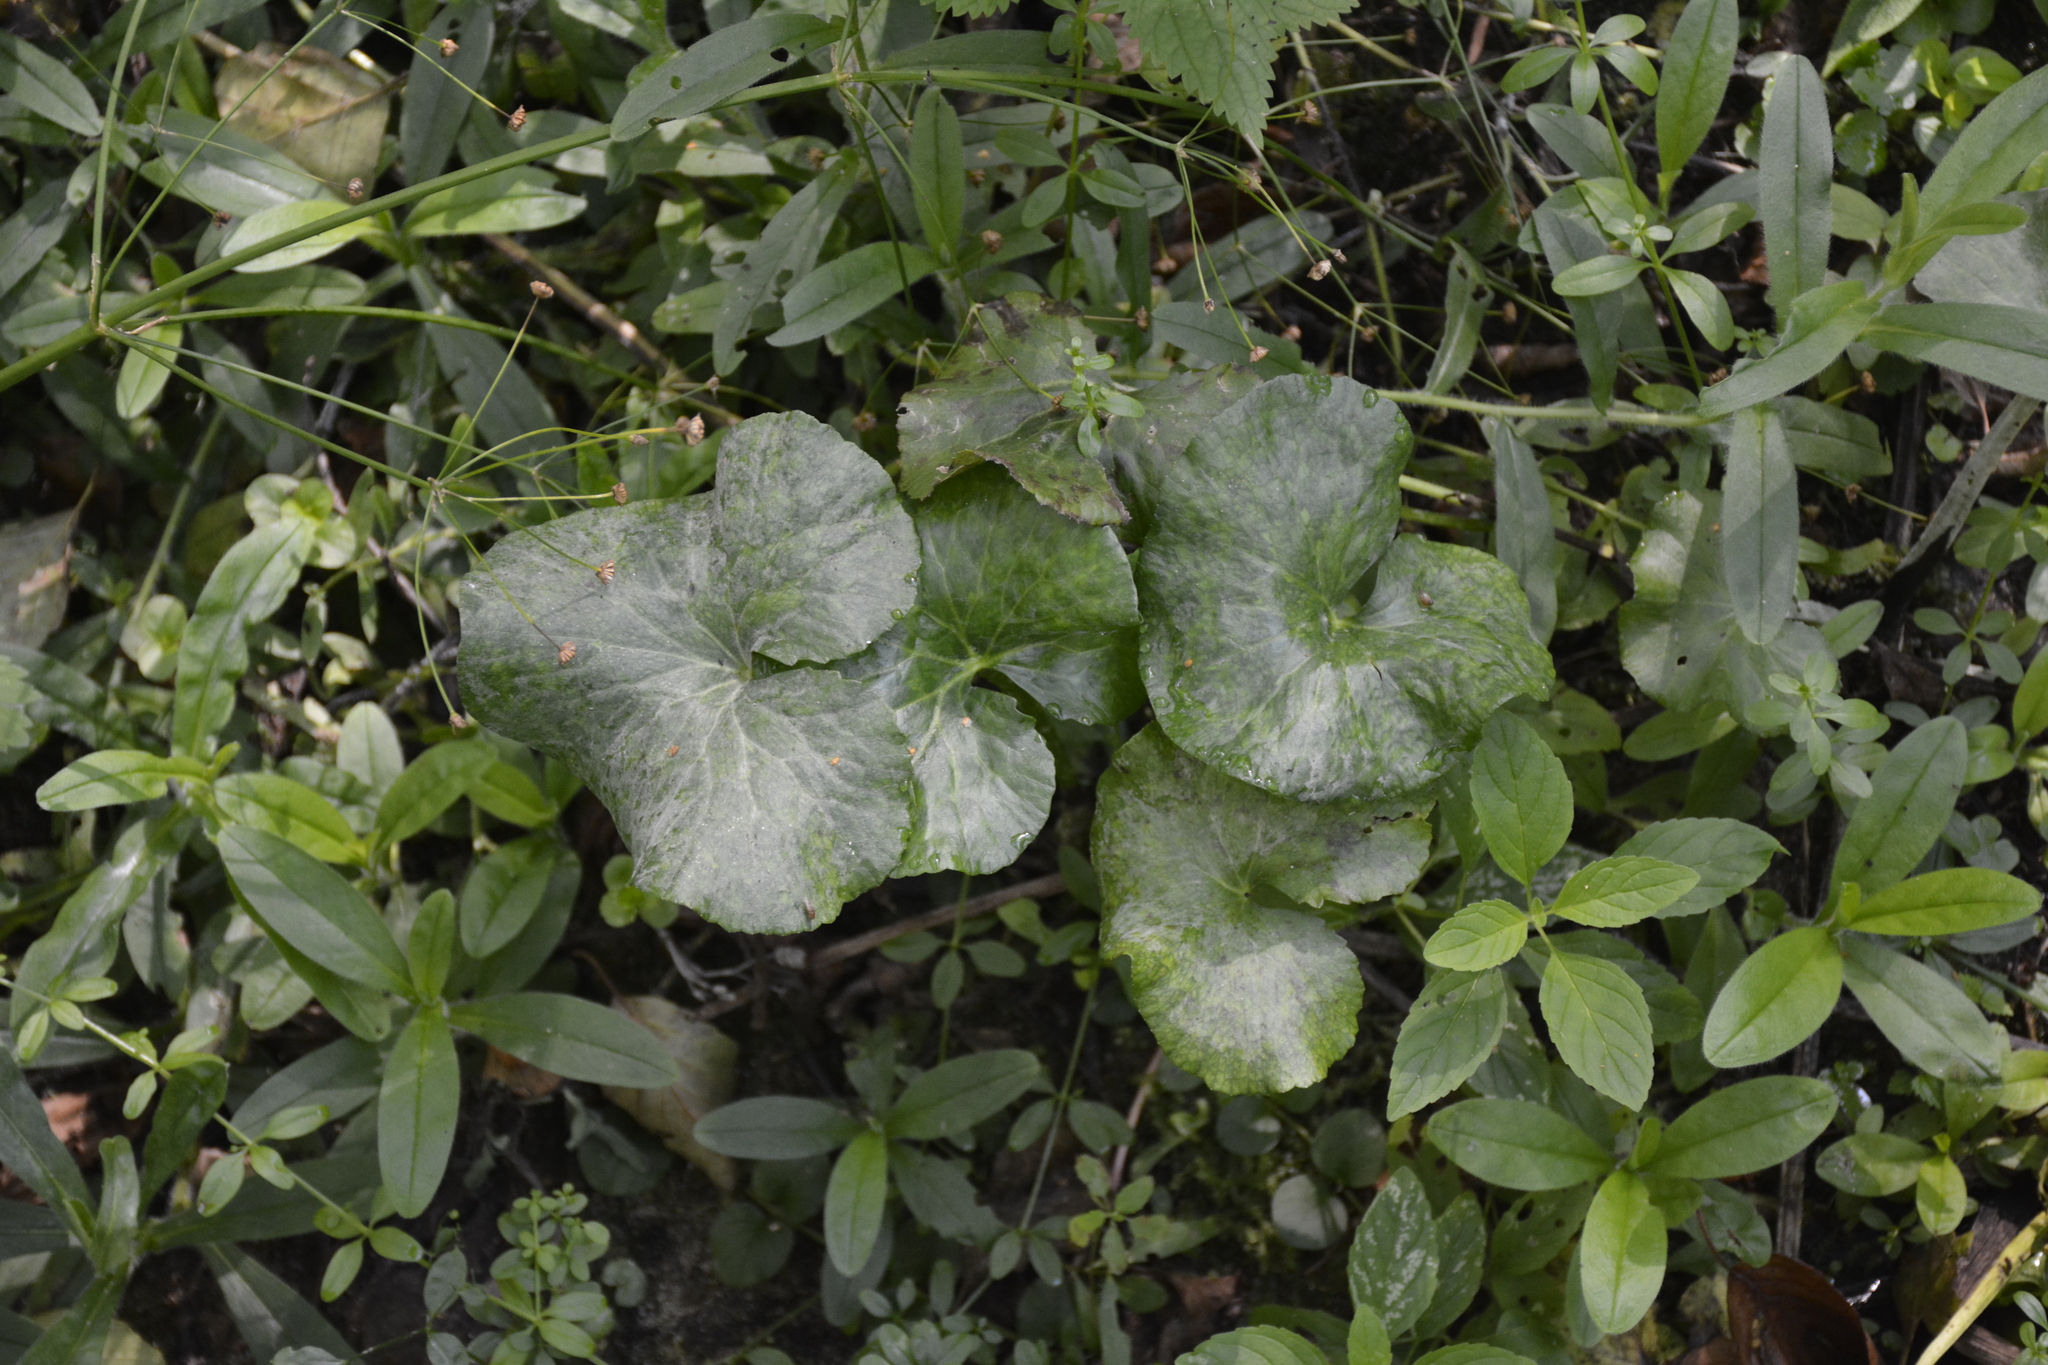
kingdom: Plantae
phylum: Tracheophyta
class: Magnoliopsida
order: Ranunculales
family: Ranunculaceae
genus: Caltha
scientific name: Caltha palustris
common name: Marsh marigold
